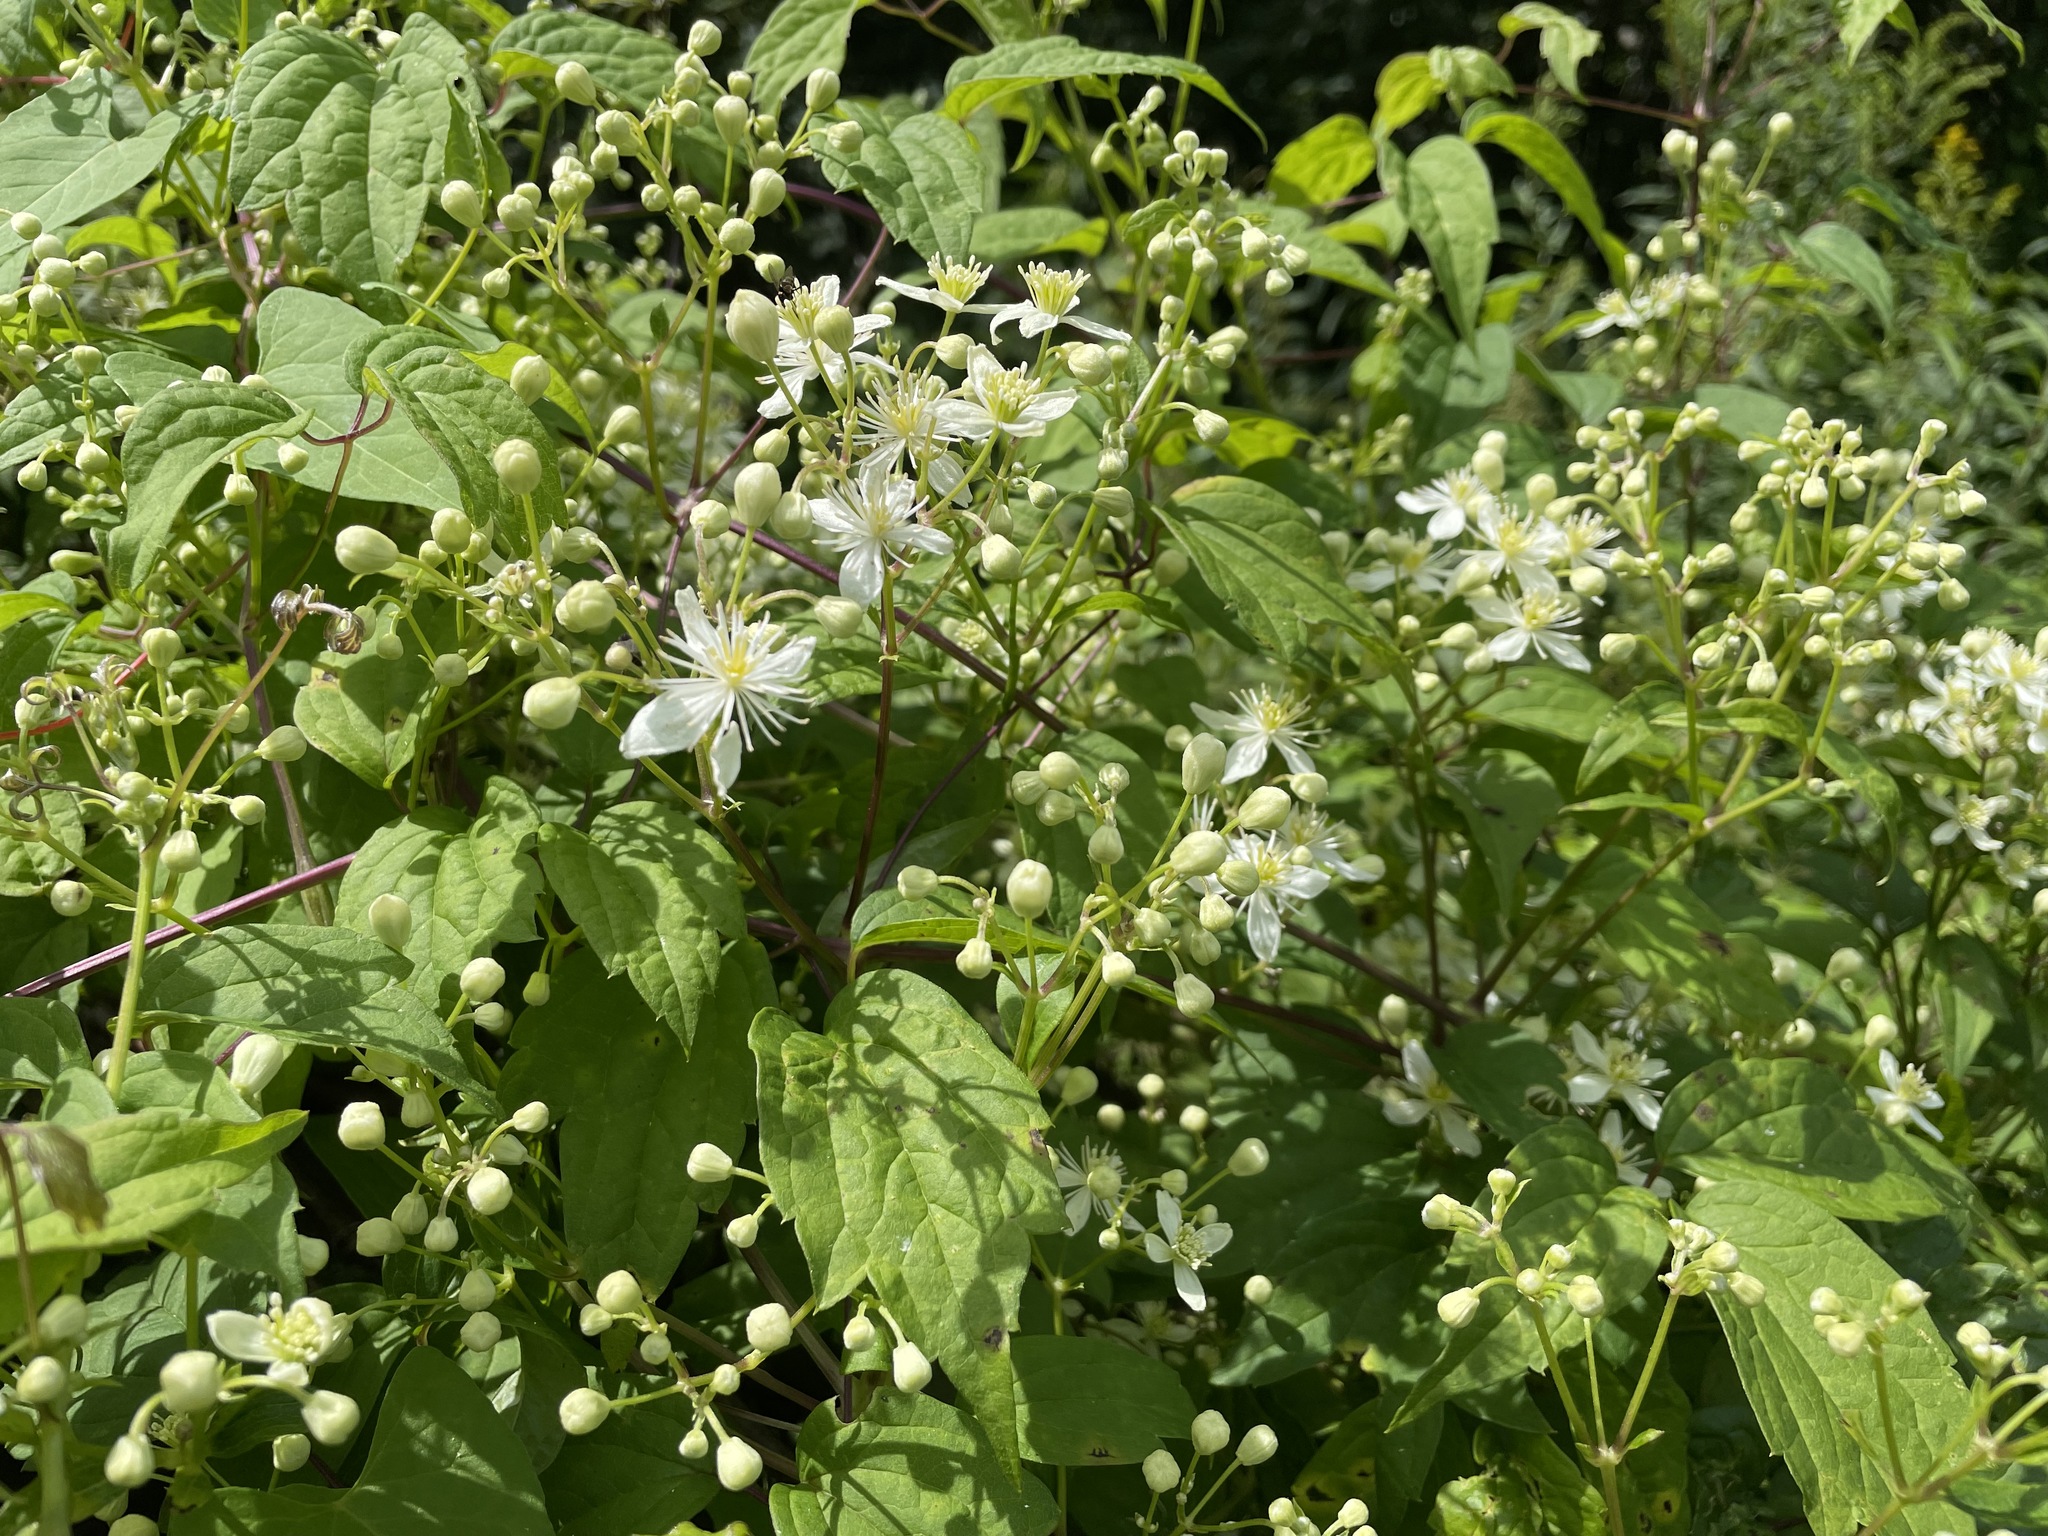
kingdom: Plantae
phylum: Tracheophyta
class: Magnoliopsida
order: Ranunculales
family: Ranunculaceae
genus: Clematis
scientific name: Clematis virginiana
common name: Virgin's-bower
